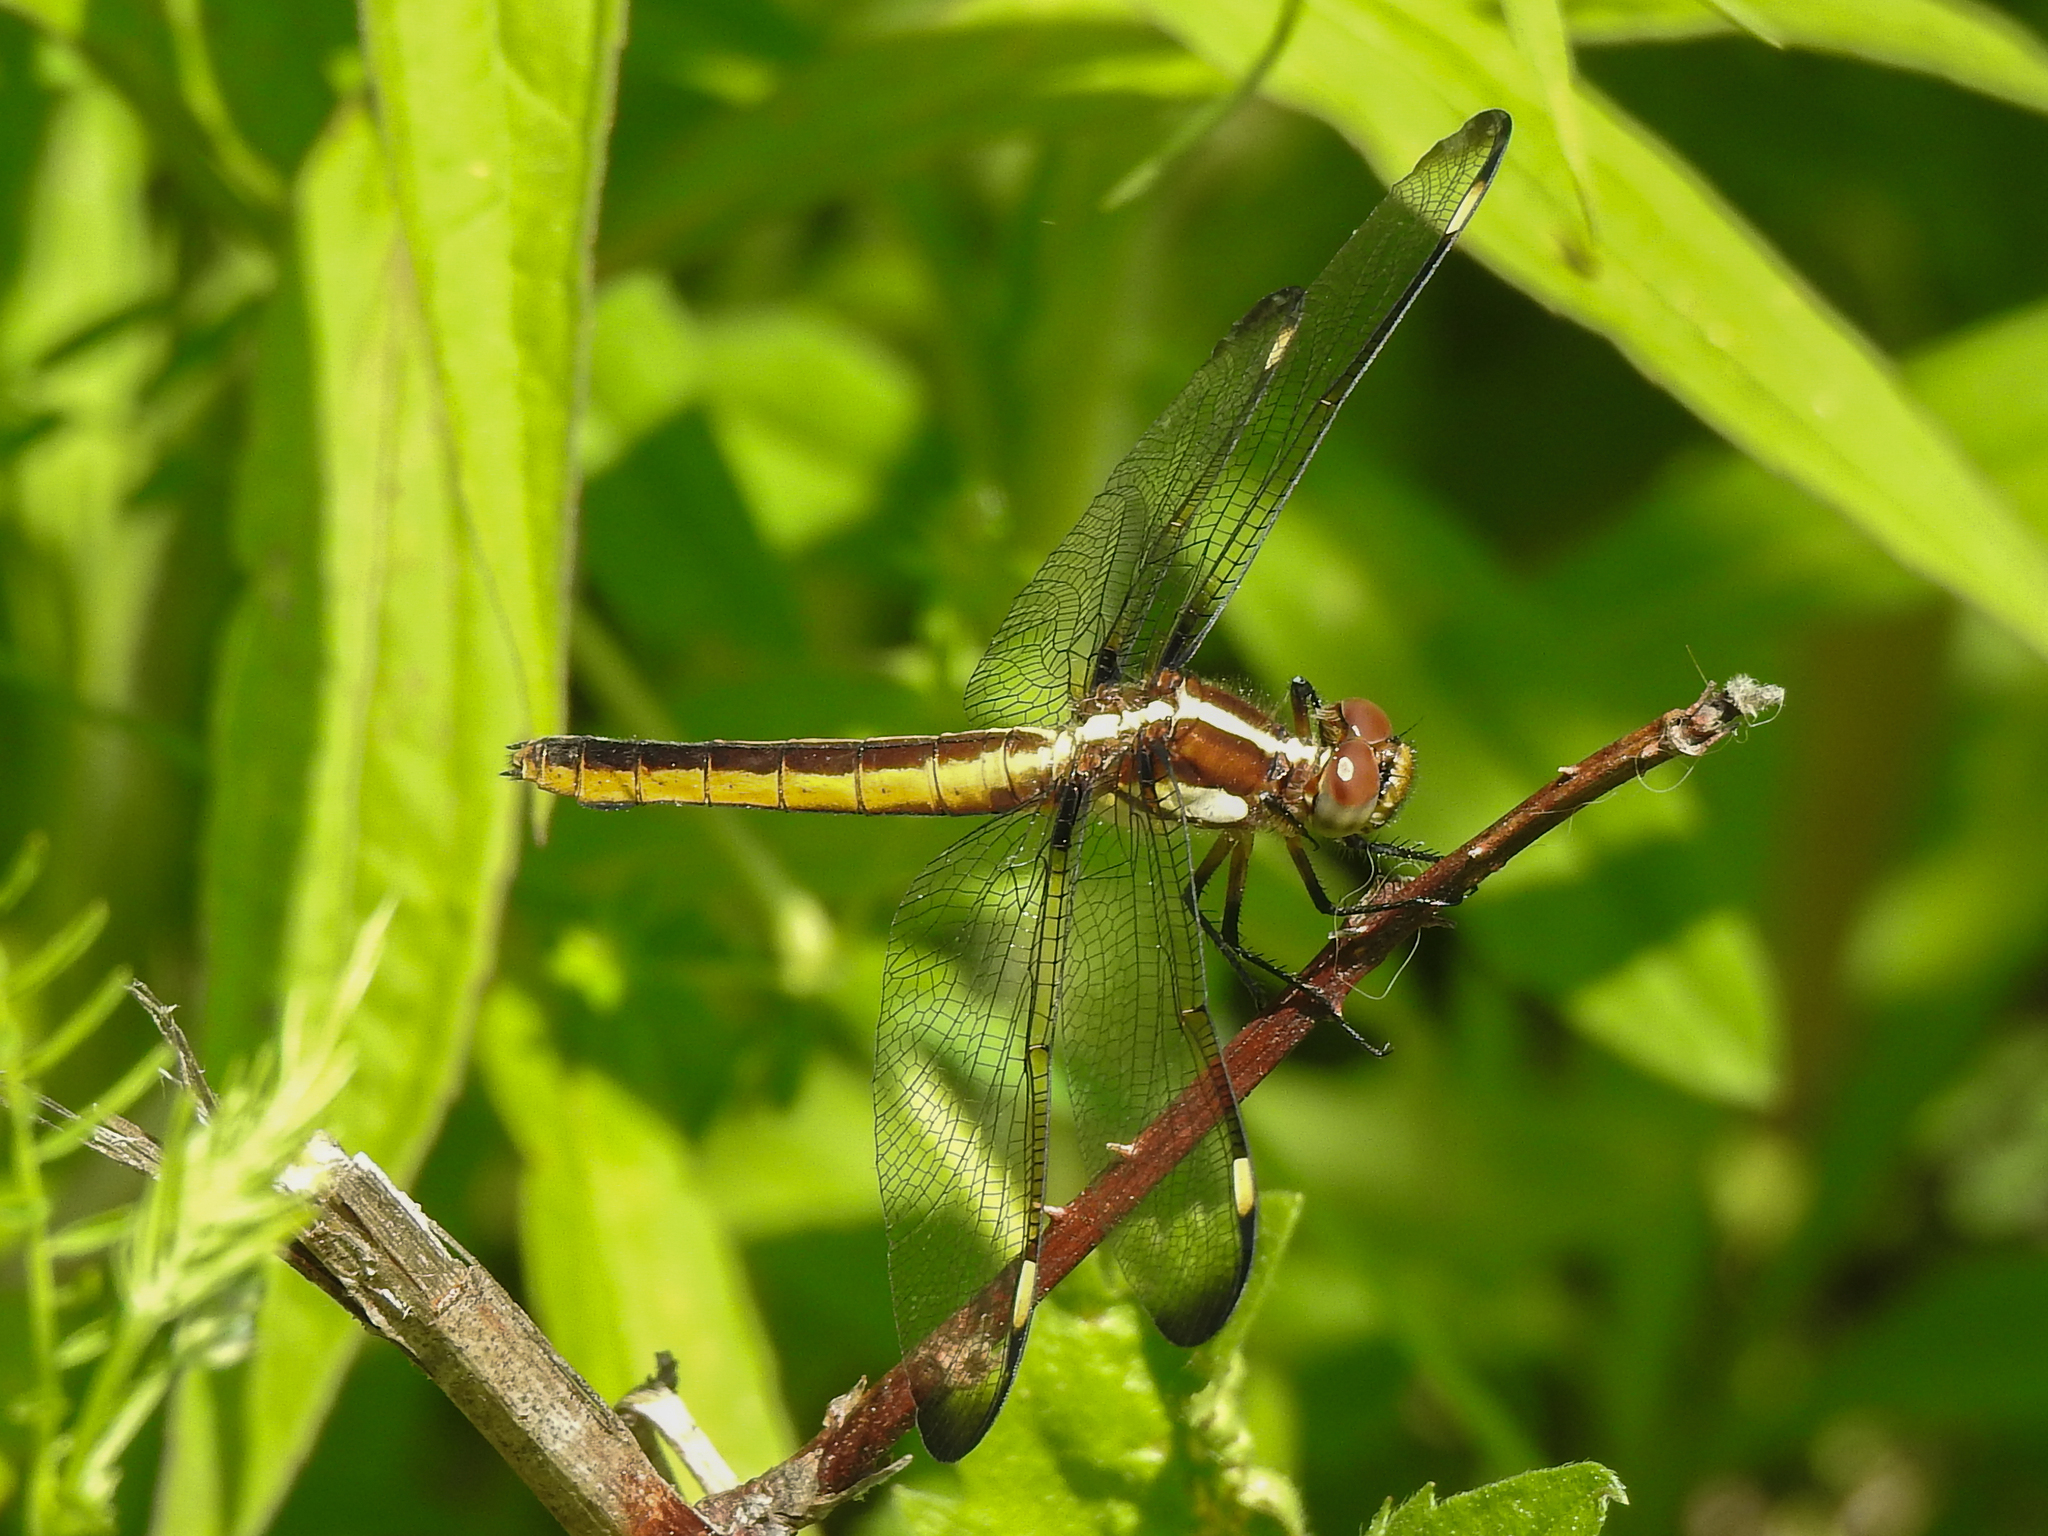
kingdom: Animalia
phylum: Arthropoda
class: Insecta
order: Odonata
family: Libellulidae
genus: Libellula
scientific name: Libellula cyanea
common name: Spangled skimmer
